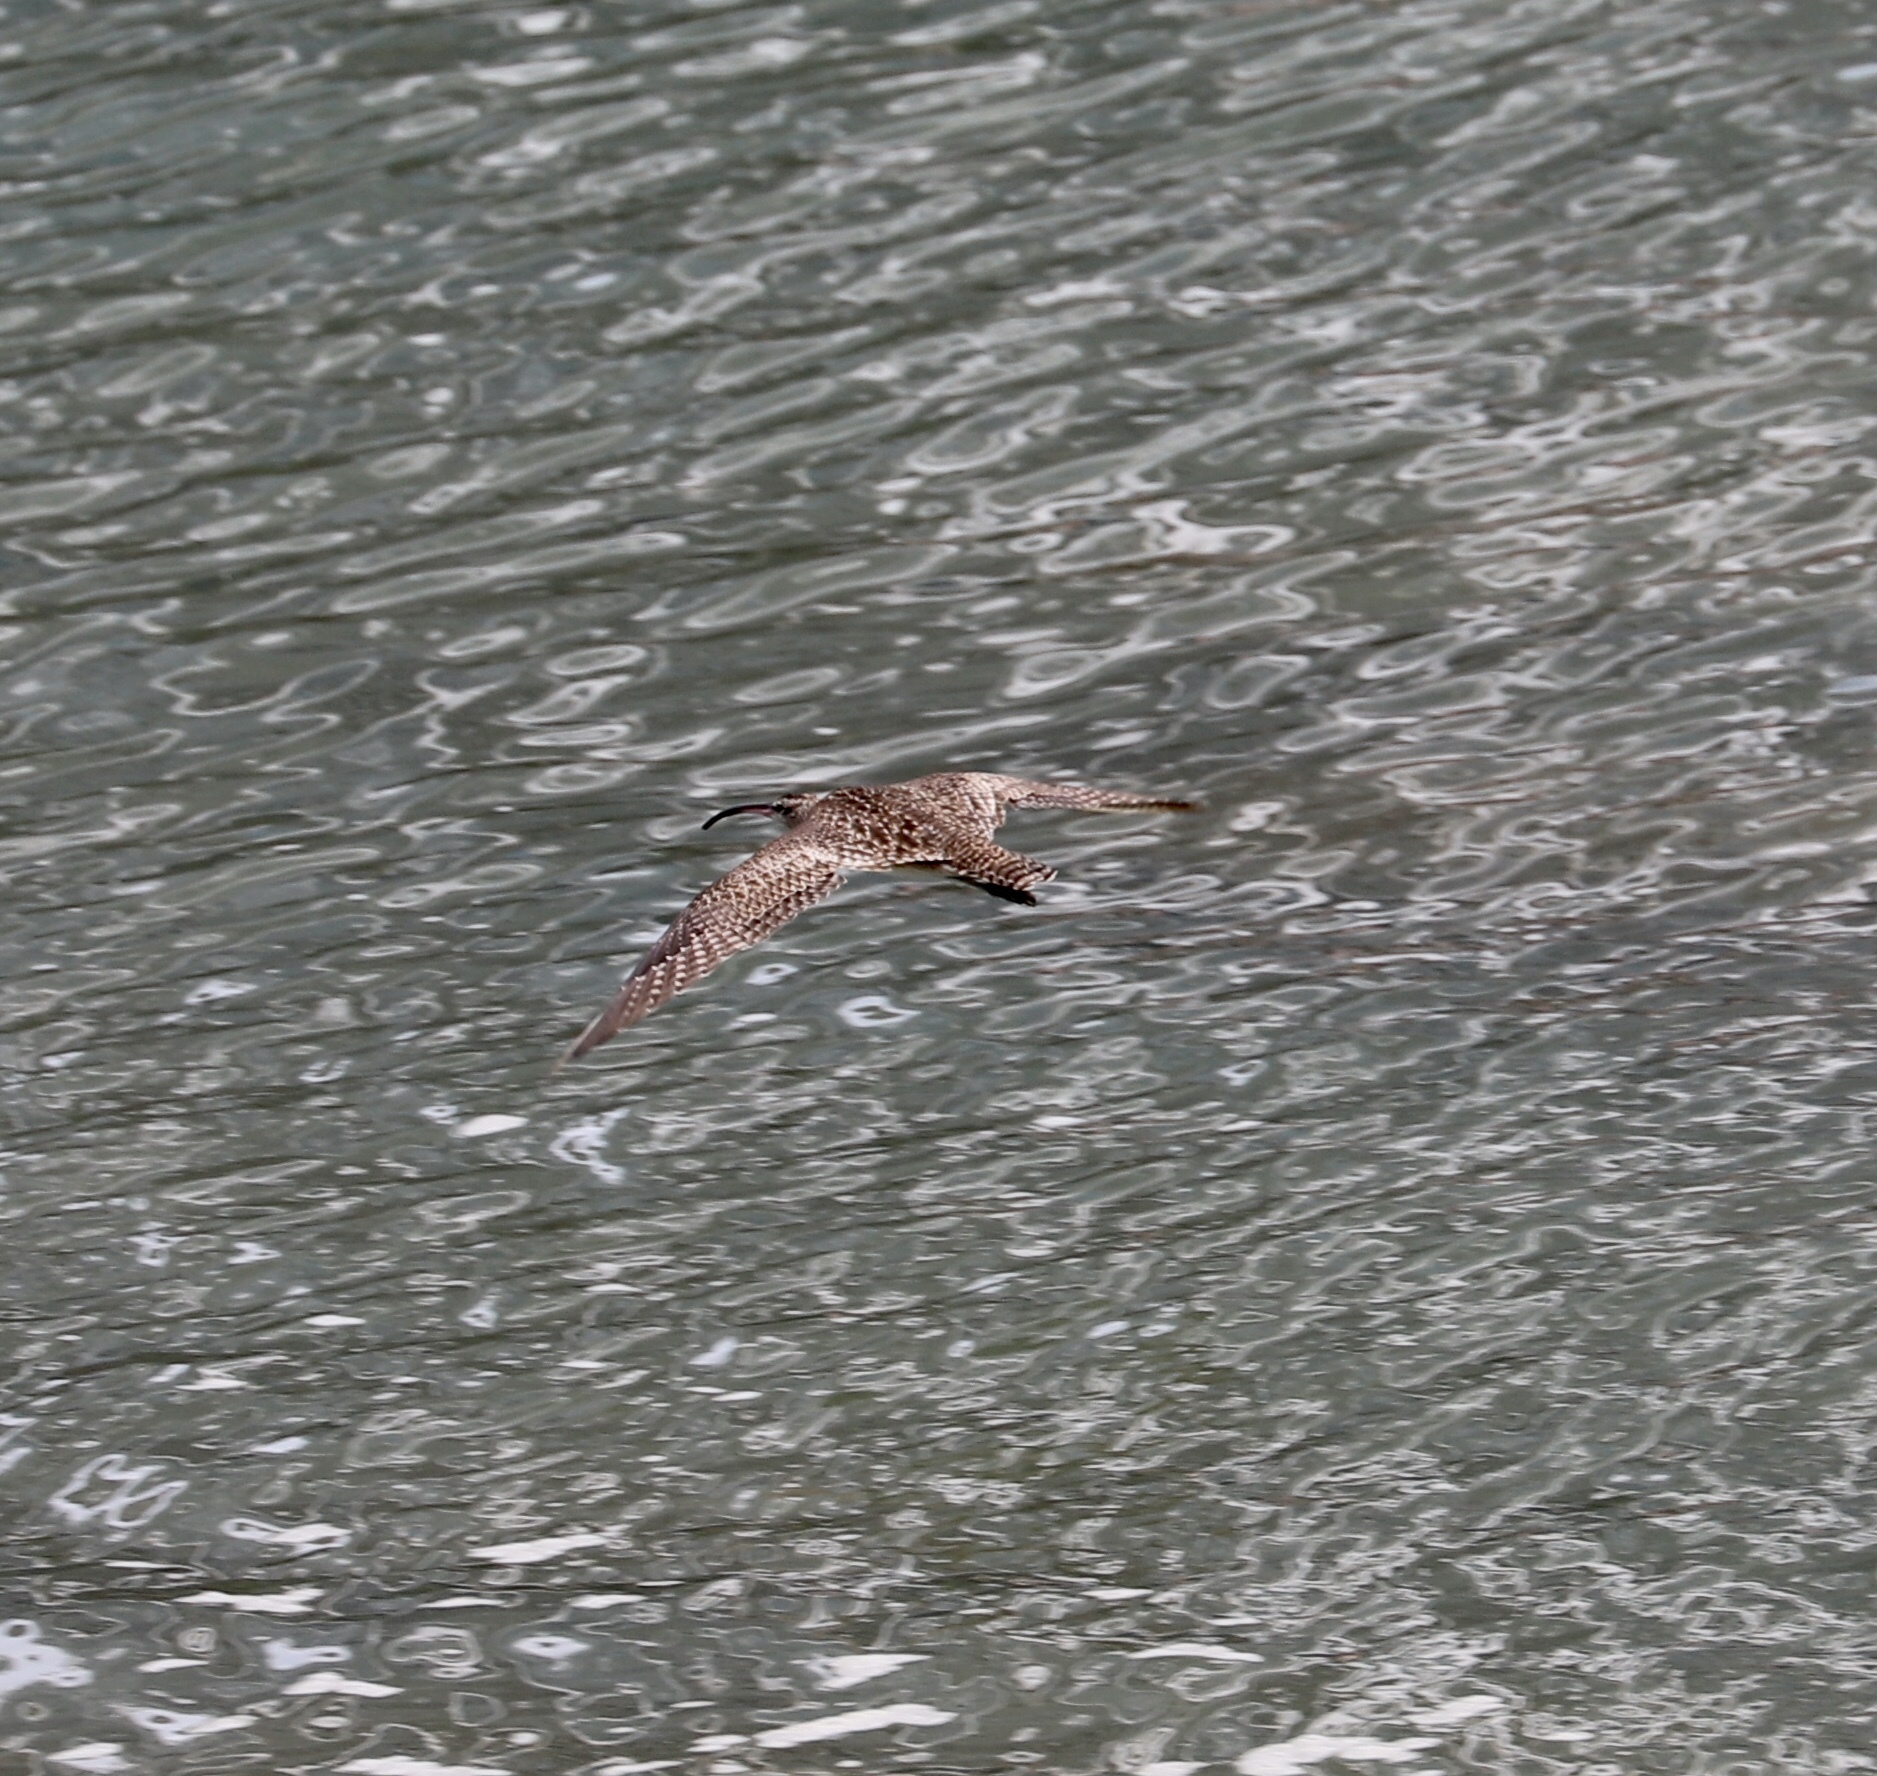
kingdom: Animalia
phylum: Chordata
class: Aves
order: Charadriiformes
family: Scolopacidae
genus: Numenius
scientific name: Numenius phaeopus
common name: Whimbrel
